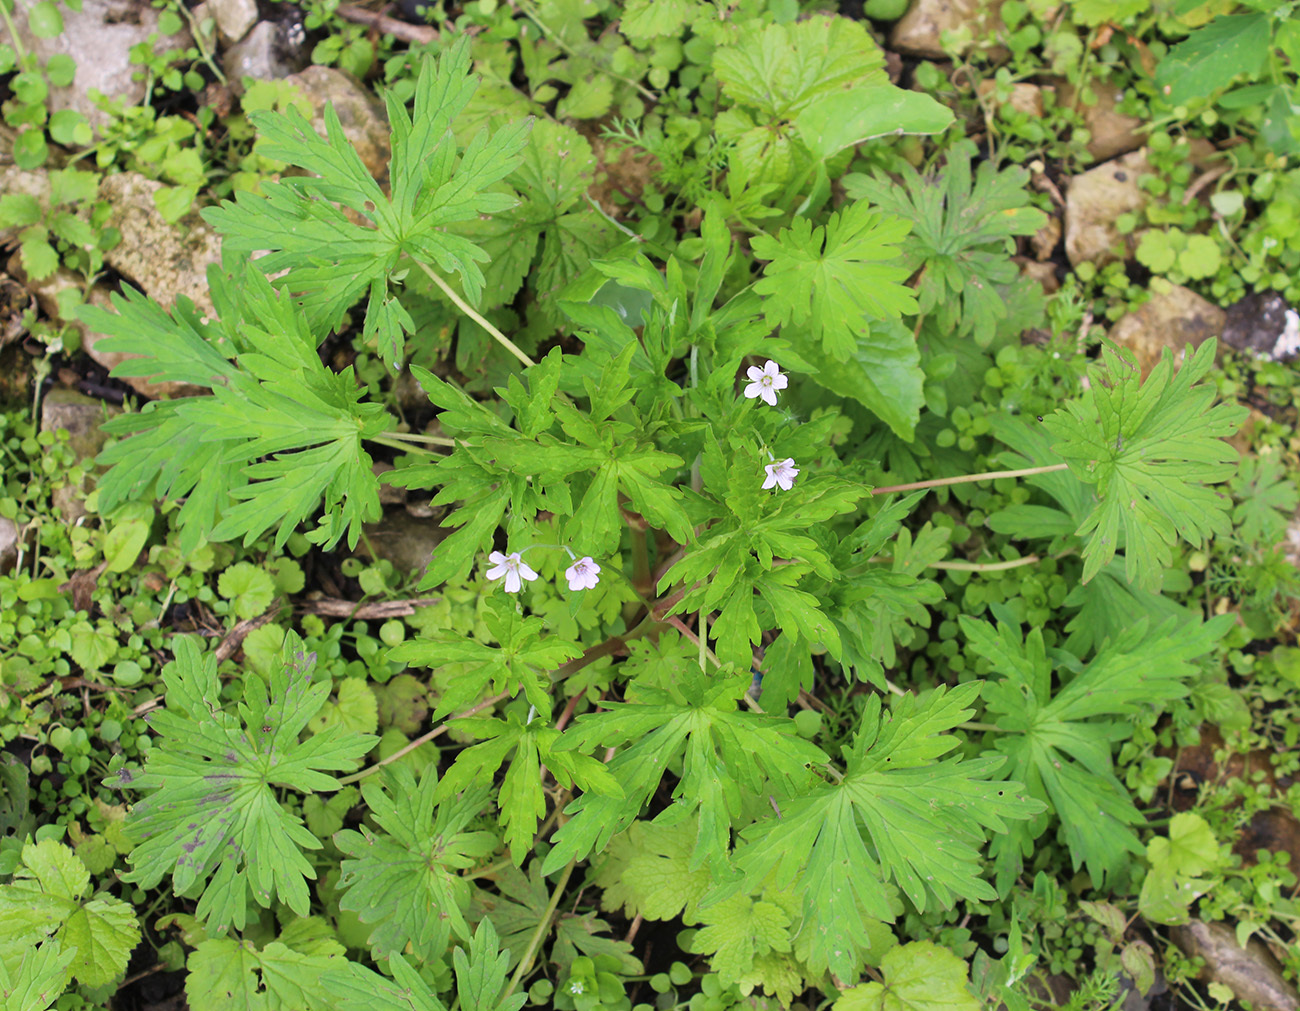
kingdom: Plantae
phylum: Tracheophyta
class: Magnoliopsida
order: Geraniales
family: Geraniaceae
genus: Geranium
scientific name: Geranium sibiricum
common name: Siberian crane's-bill
